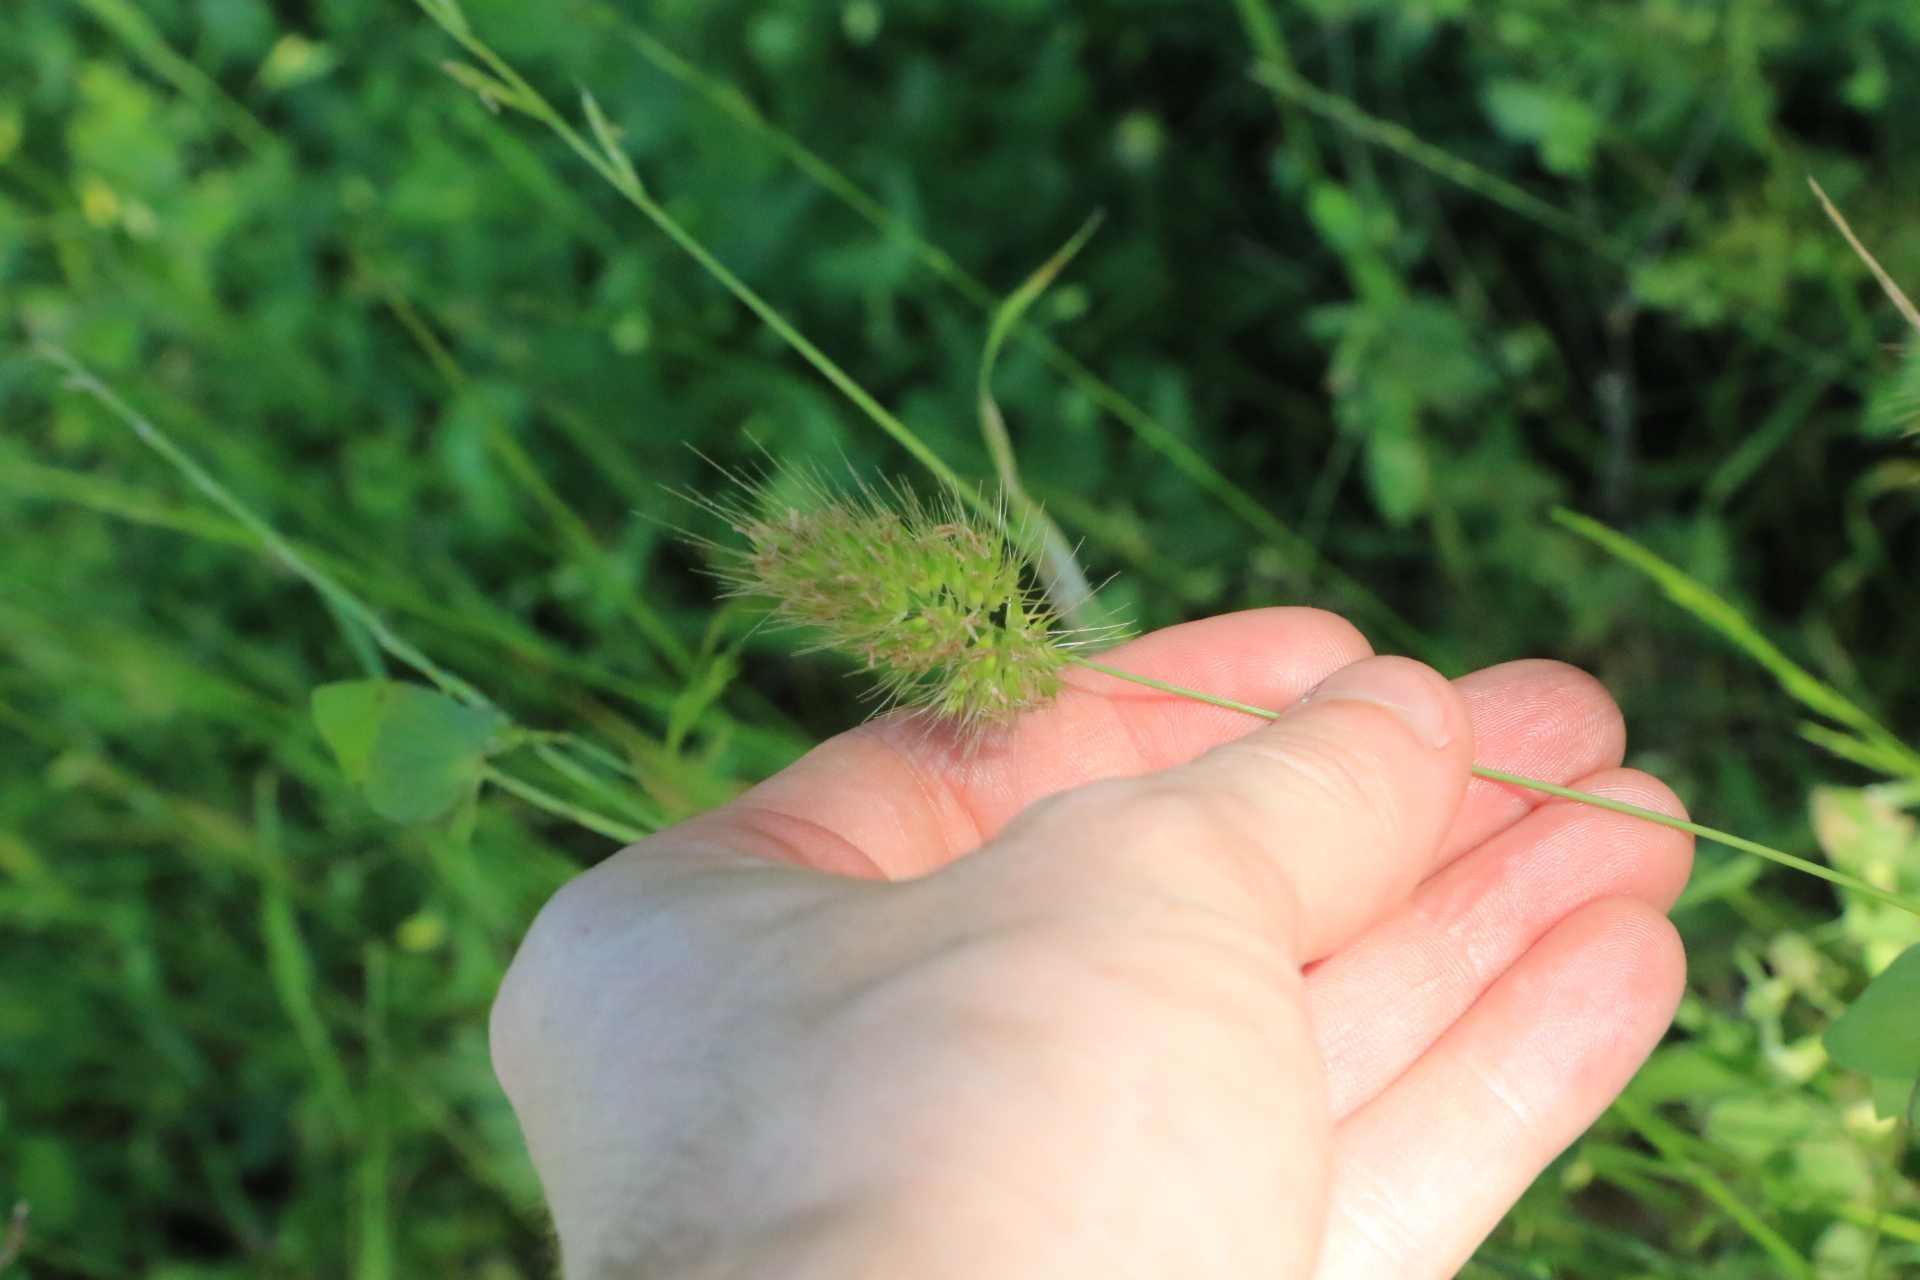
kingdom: Plantae
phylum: Tracheophyta
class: Liliopsida
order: Poales
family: Poaceae
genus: Cynosurus
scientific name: Cynosurus echinatus
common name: Rough dog's-tail
